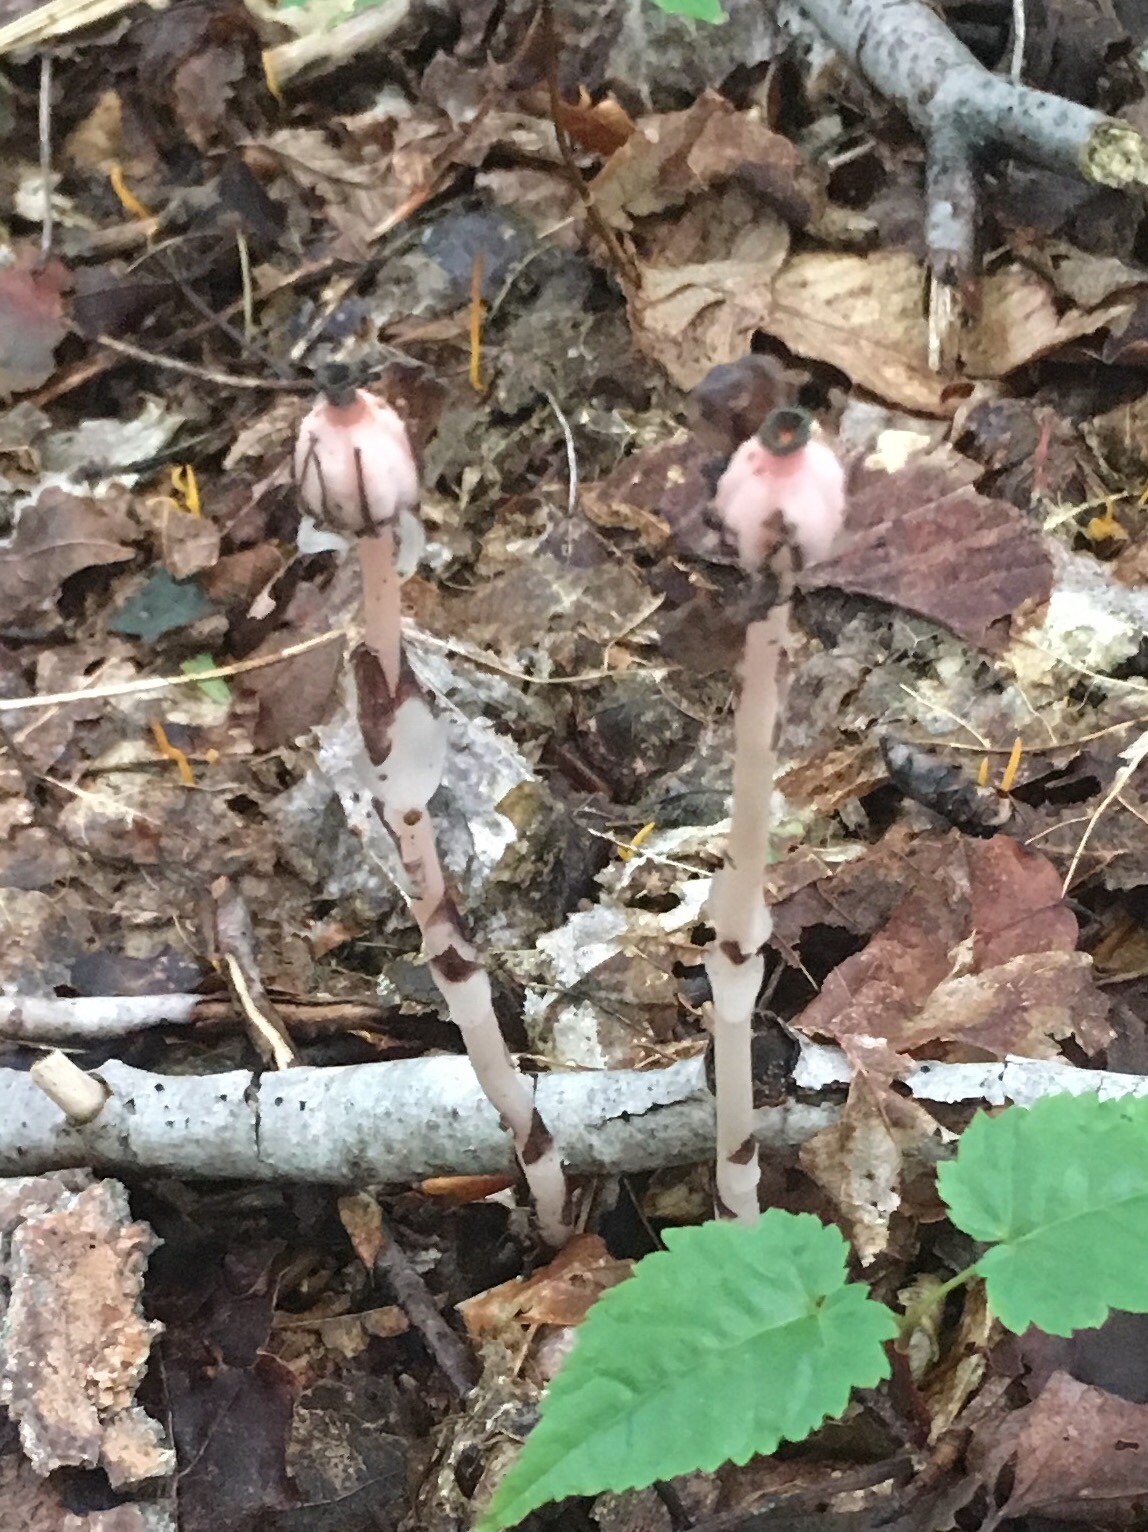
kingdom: Plantae
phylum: Tracheophyta
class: Magnoliopsida
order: Ericales
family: Ericaceae
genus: Monotropa
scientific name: Monotropa uniflora
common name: Convulsion root
